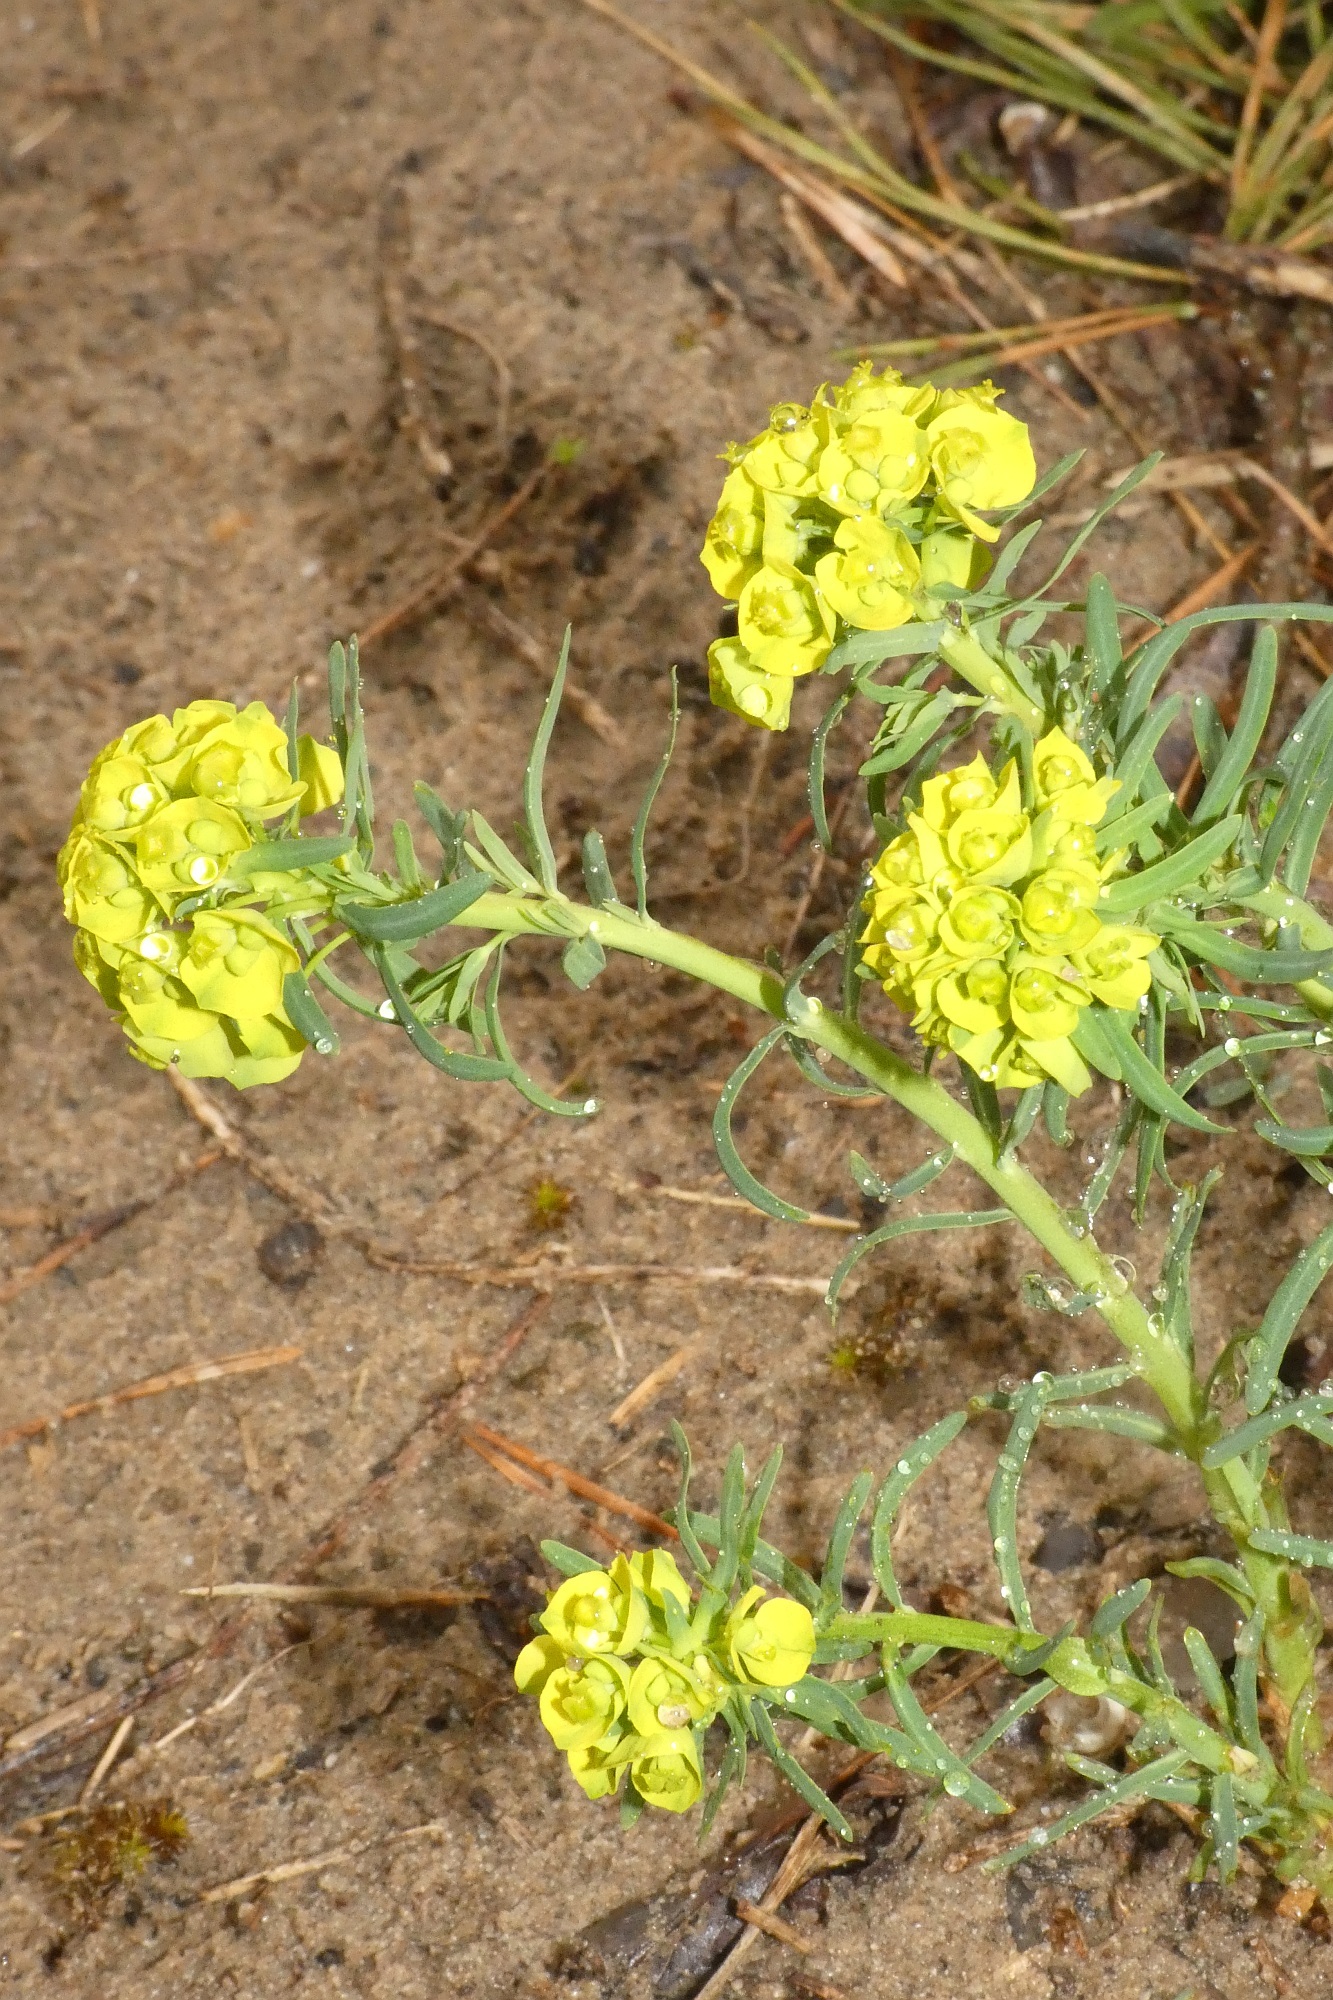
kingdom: Plantae
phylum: Tracheophyta
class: Magnoliopsida
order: Malpighiales
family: Euphorbiaceae
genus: Euphorbia
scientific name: Euphorbia cyparissias
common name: Cypress spurge
